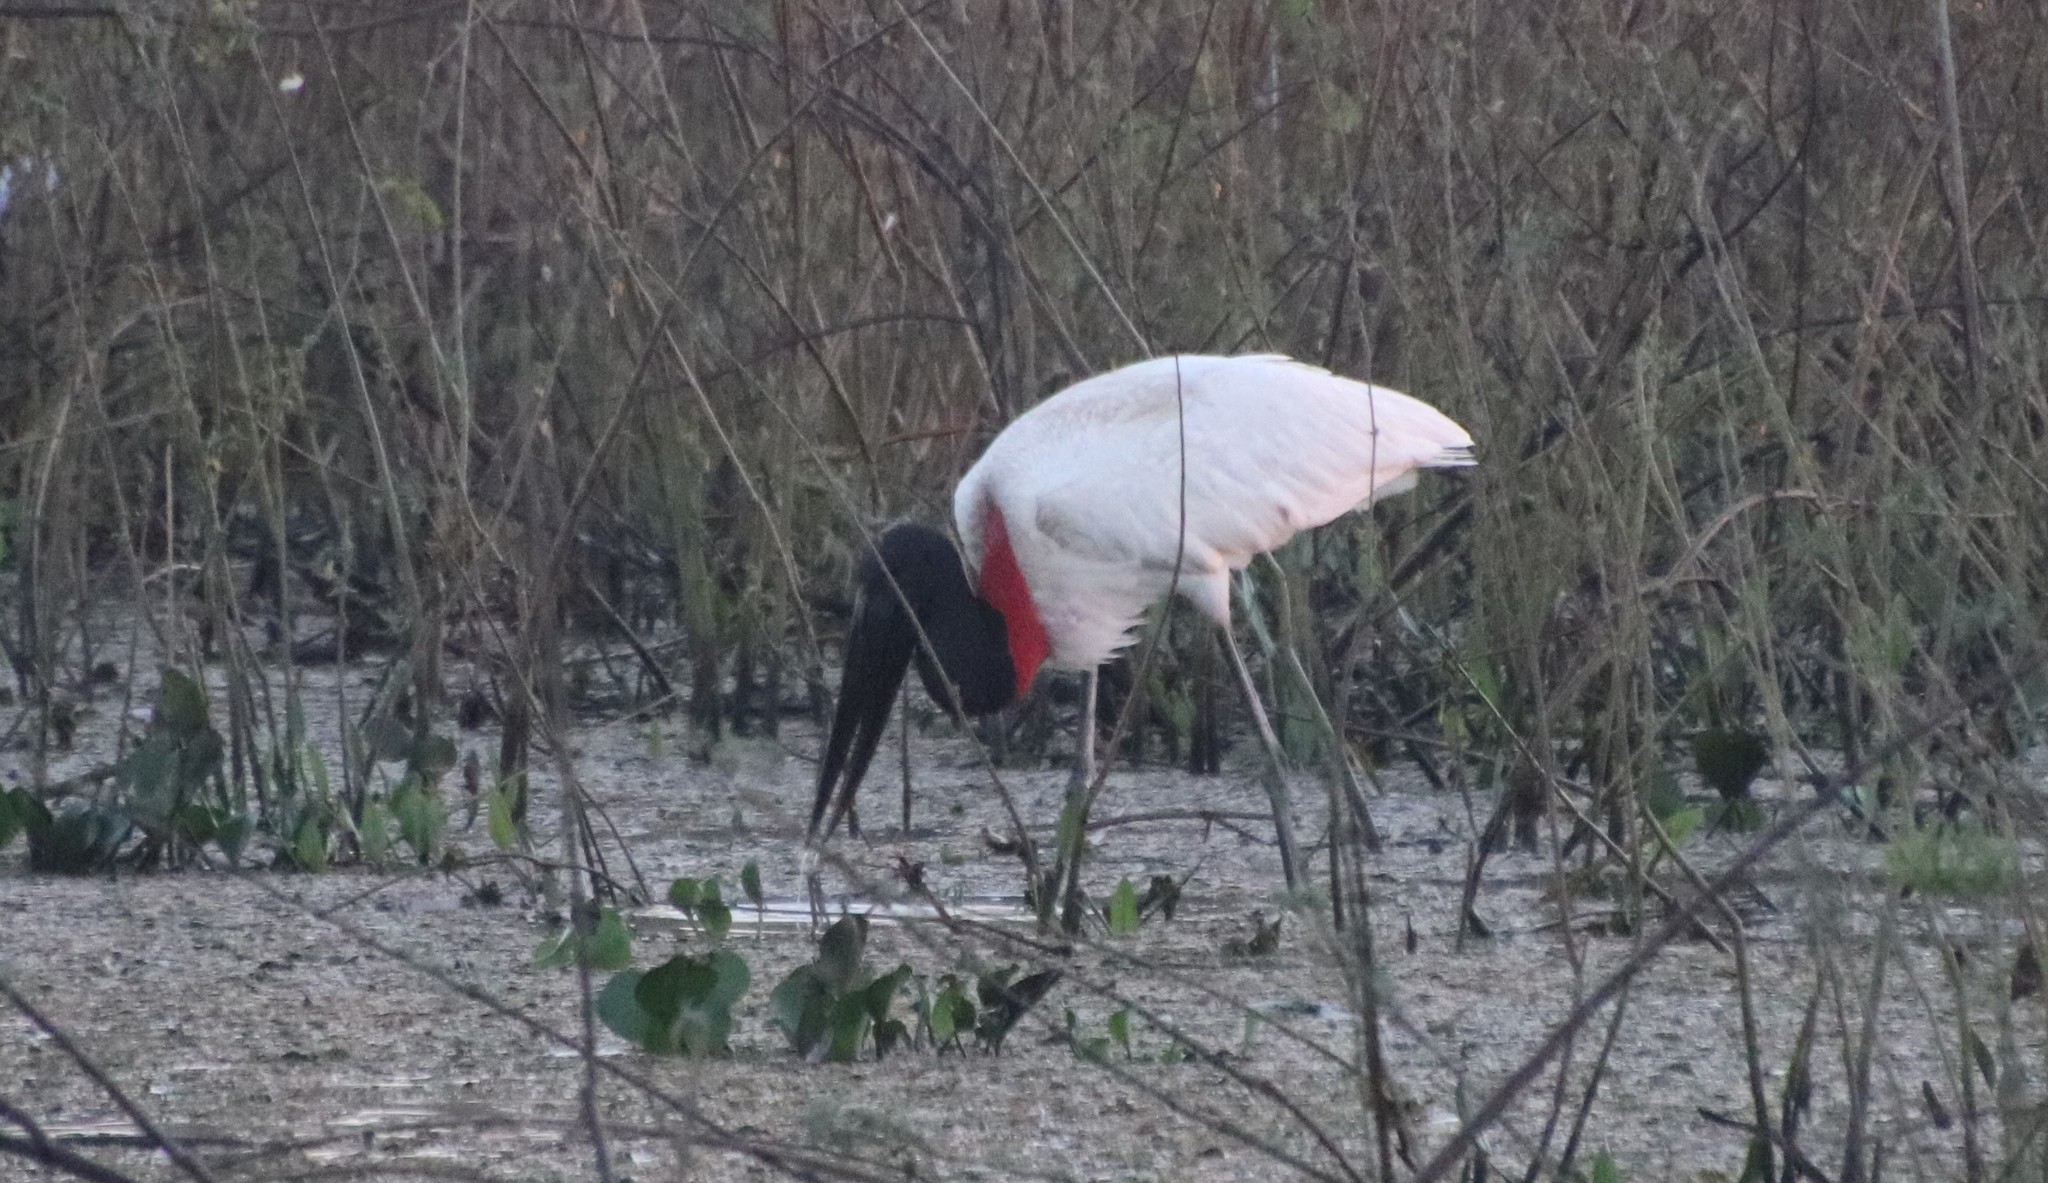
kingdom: Animalia
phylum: Chordata
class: Aves
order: Ciconiiformes
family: Ciconiidae
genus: Jabiru
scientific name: Jabiru mycteria
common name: Jabiru
